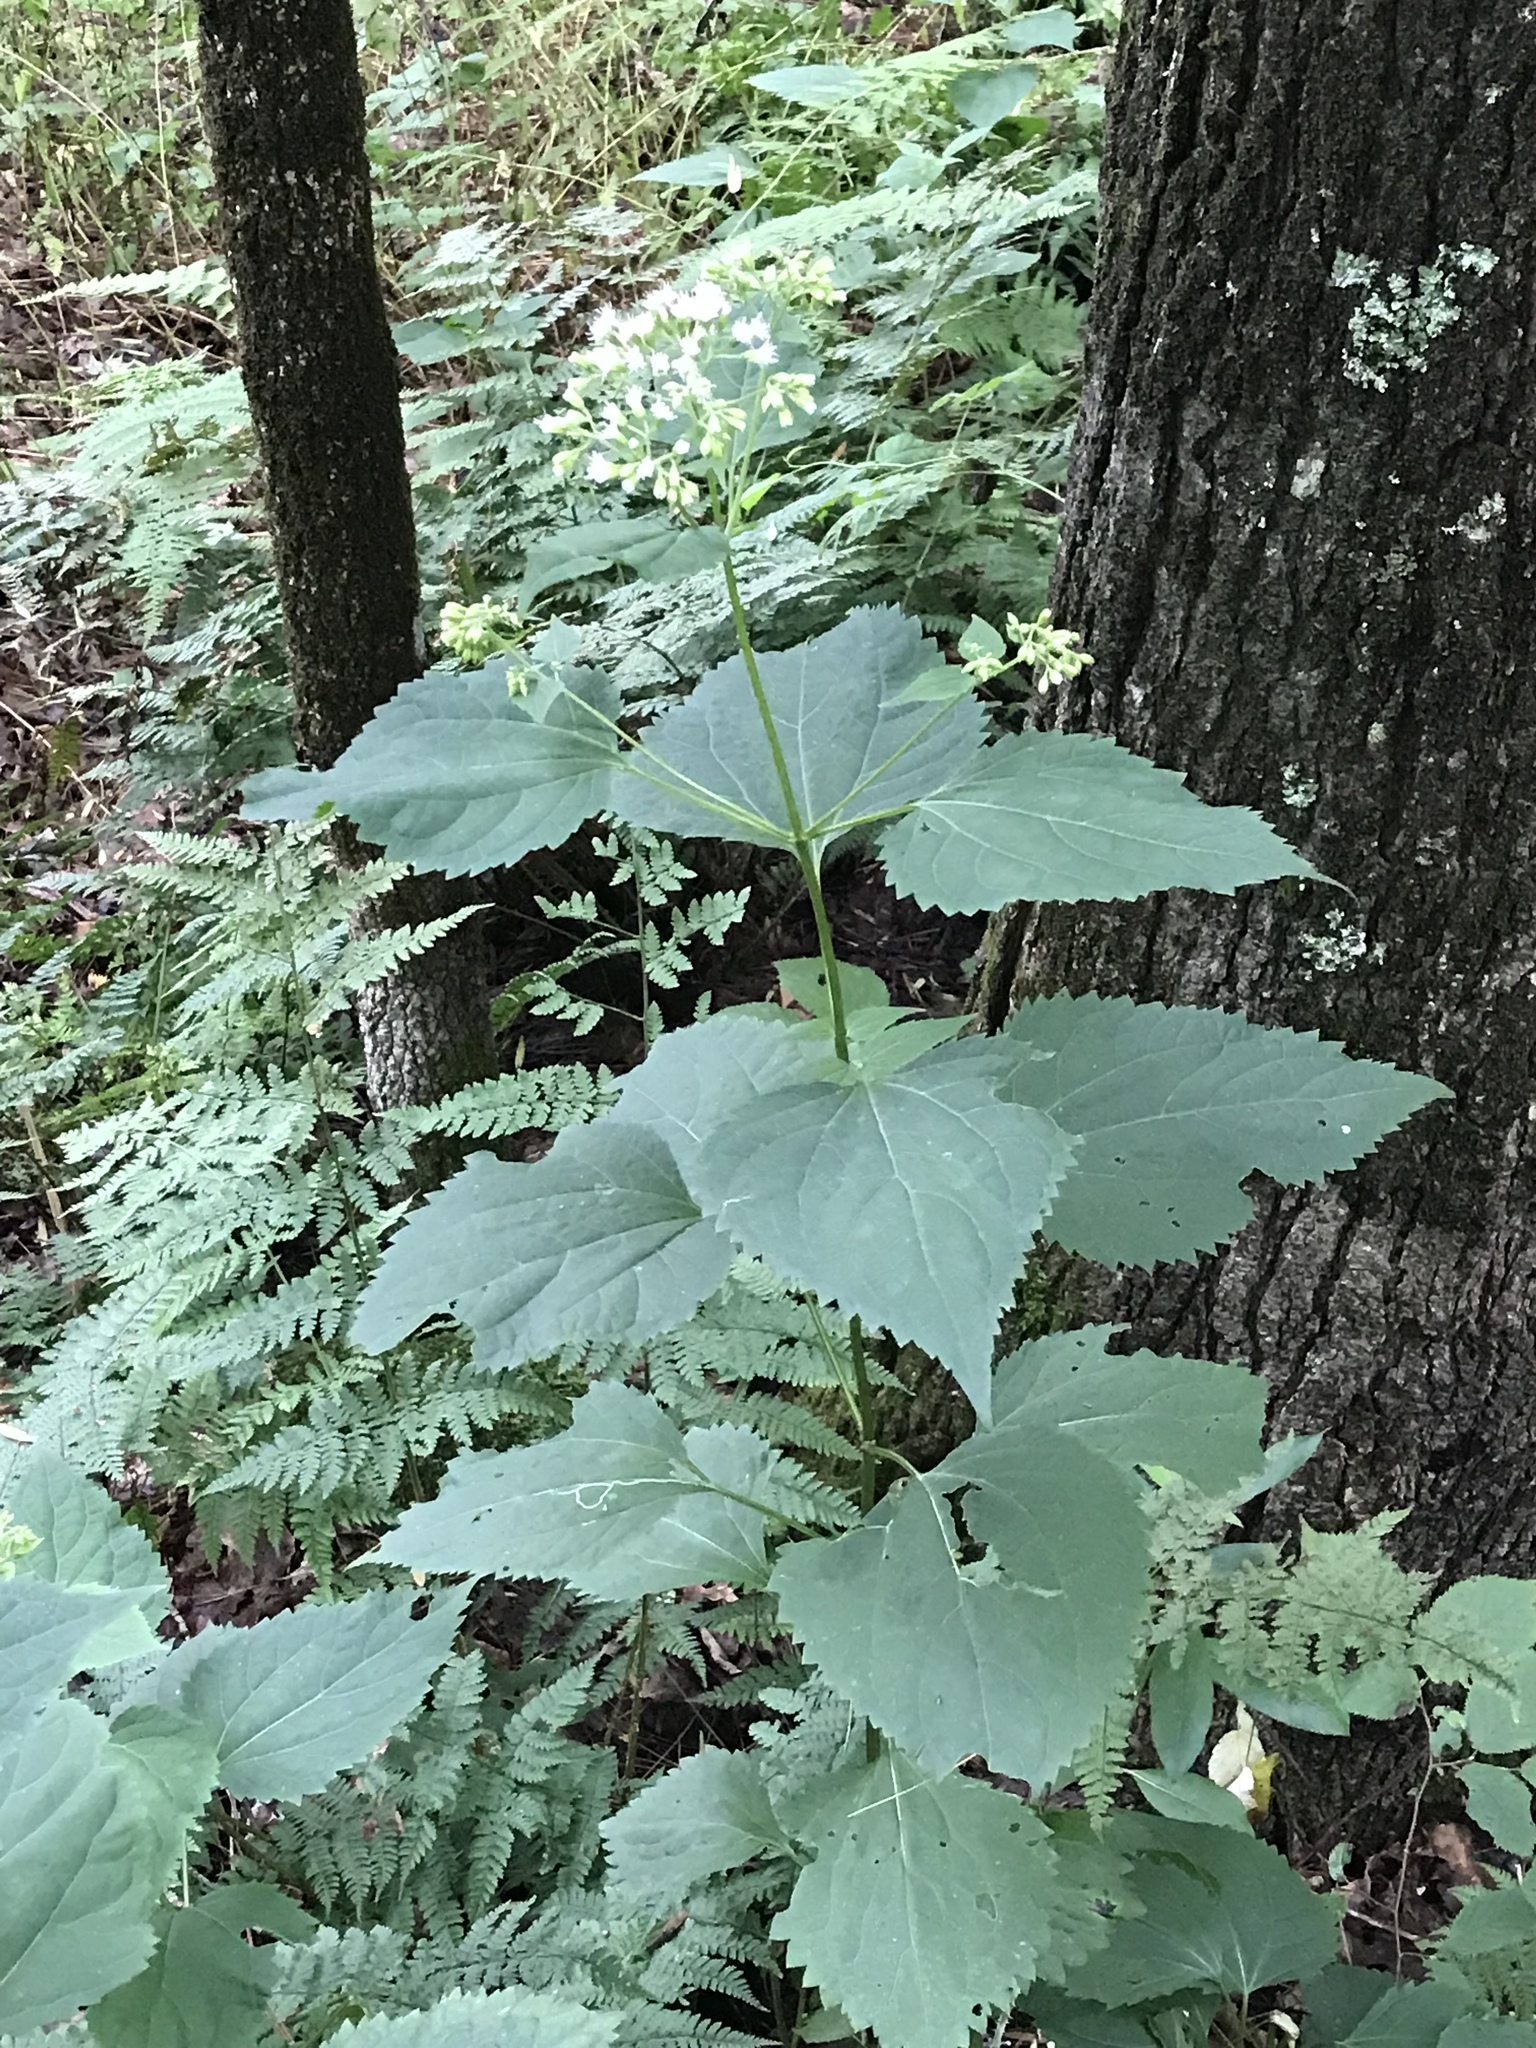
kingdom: Plantae
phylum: Tracheophyta
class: Magnoliopsida
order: Asterales
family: Asteraceae
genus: Ageratina
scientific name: Ageratina altissima
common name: White snakeroot
